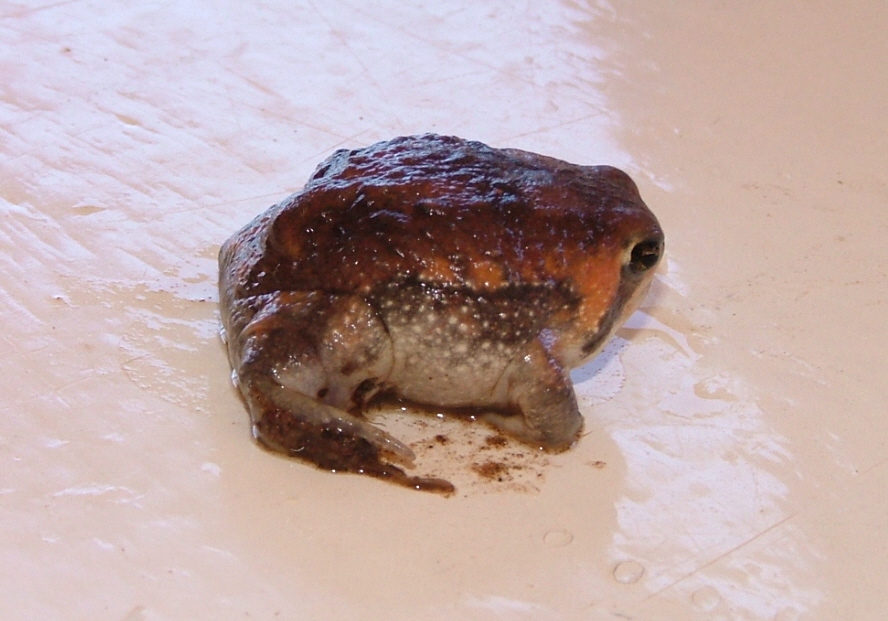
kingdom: Animalia
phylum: Chordata
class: Amphibia
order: Anura
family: Brevicipitidae
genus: Breviceps
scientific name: Breviceps adspersus
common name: Common rain frog
